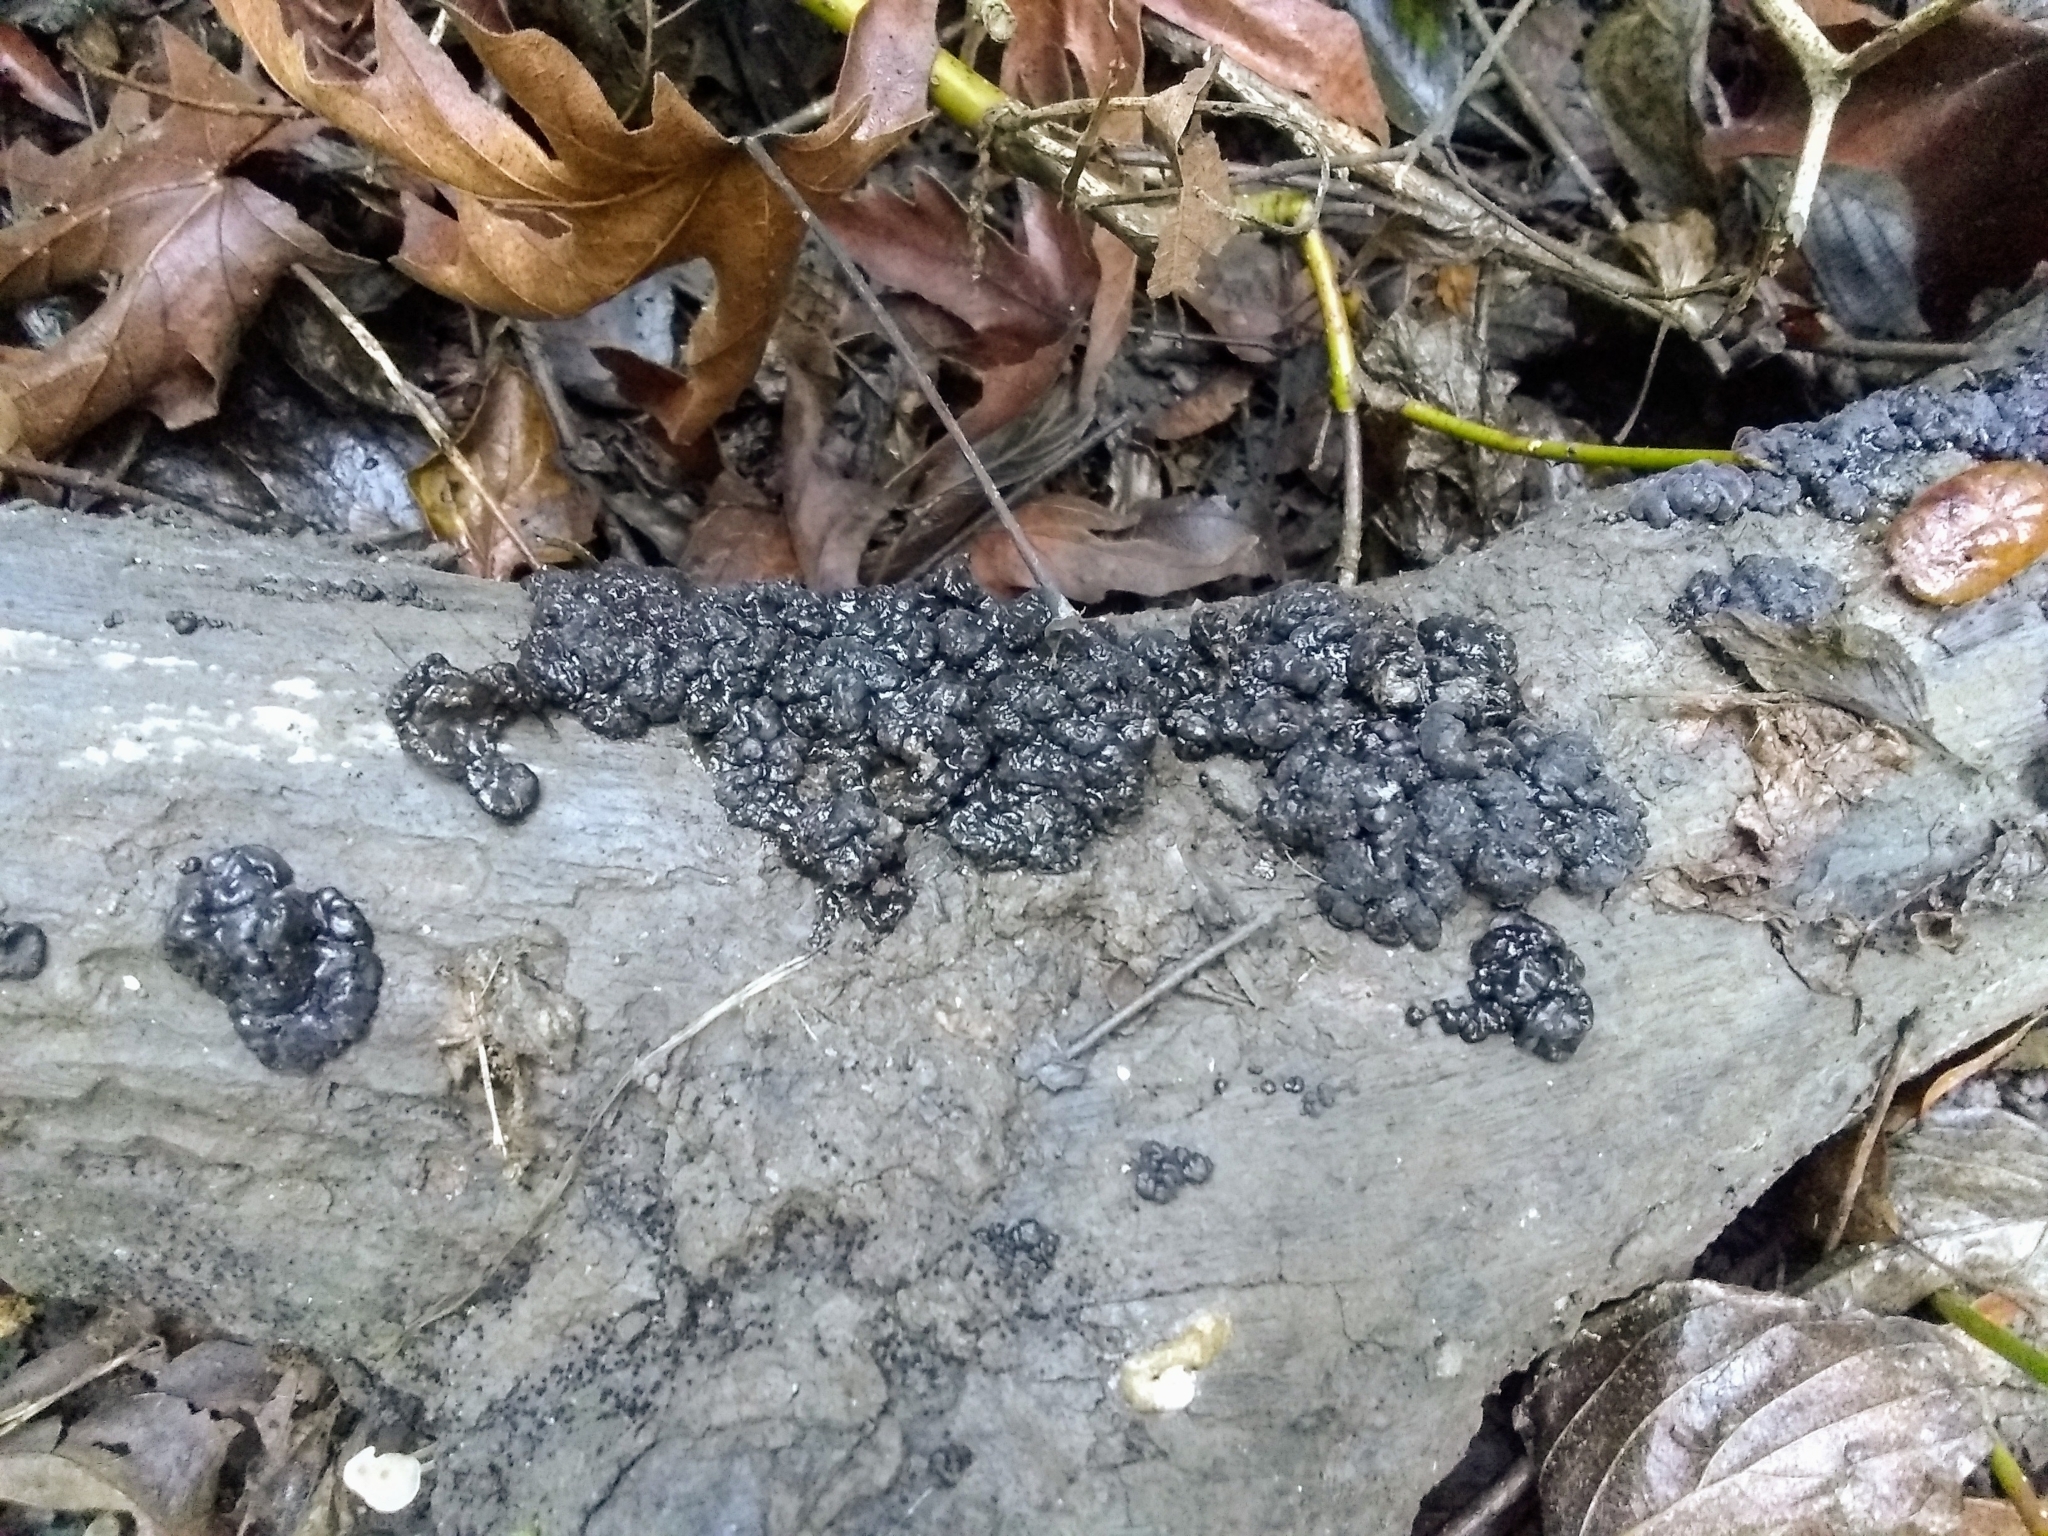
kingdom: Fungi
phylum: Basidiomycota
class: Agaricomycetes
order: Auriculariales
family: Auriculariaceae
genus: Exidia
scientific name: Exidia glandulosa
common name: Witches' butter
